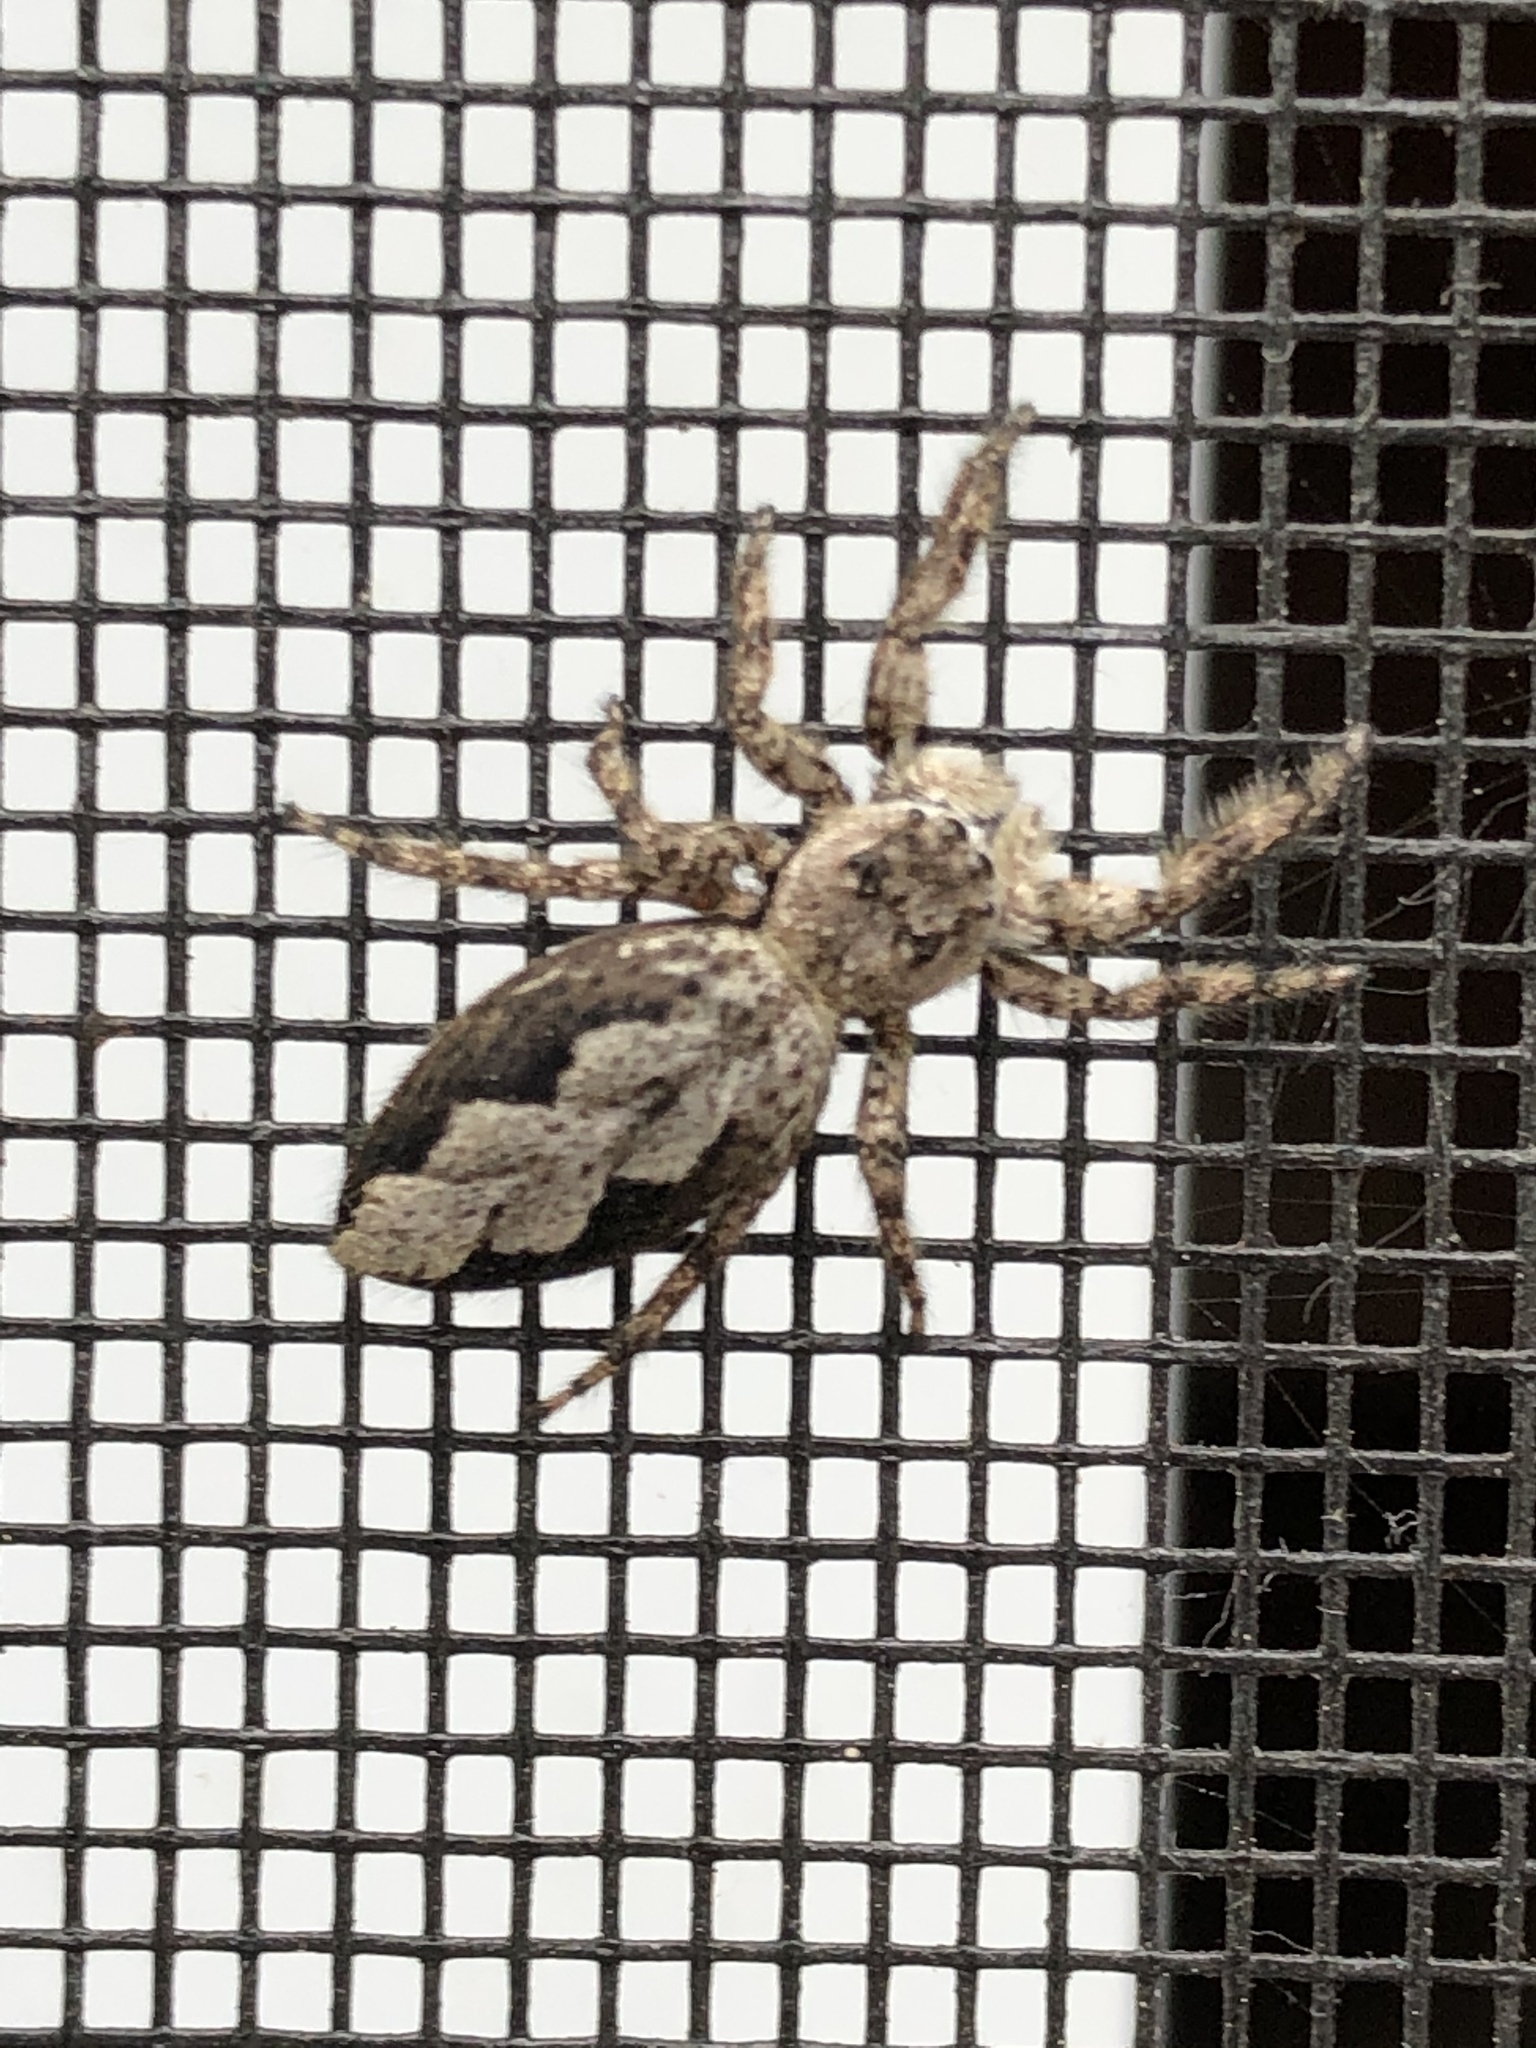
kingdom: Animalia
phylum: Arthropoda
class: Arachnida
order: Araneae
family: Salticidae
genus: Platycryptus
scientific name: Platycryptus undatus
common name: Tan jumping spider
